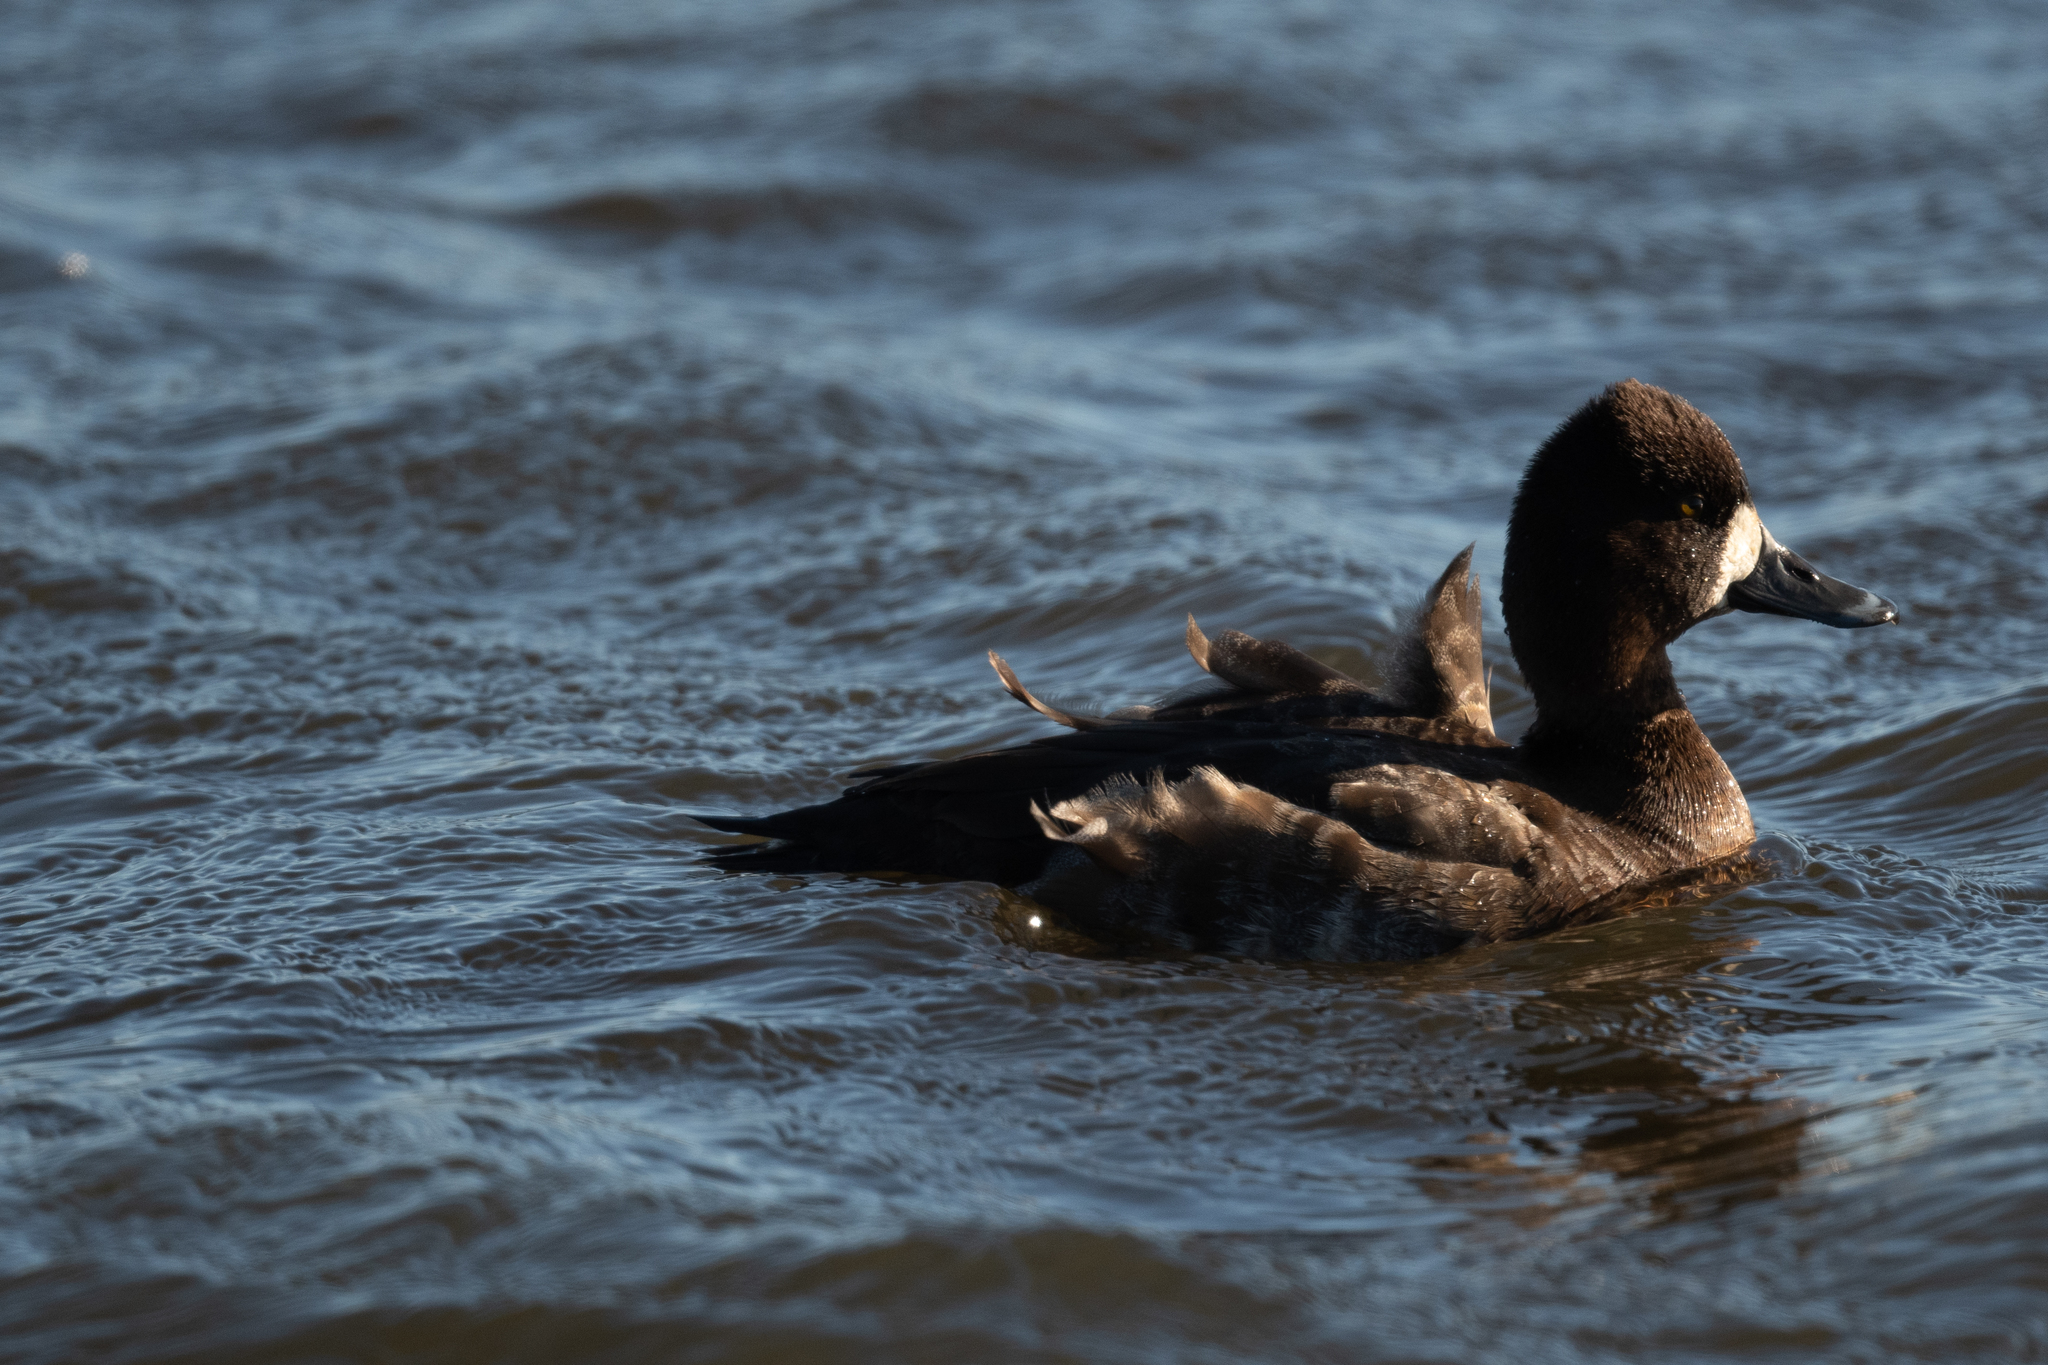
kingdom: Animalia
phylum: Chordata
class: Aves
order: Anseriformes
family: Anatidae
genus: Aythya
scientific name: Aythya affinis
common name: Lesser scaup
